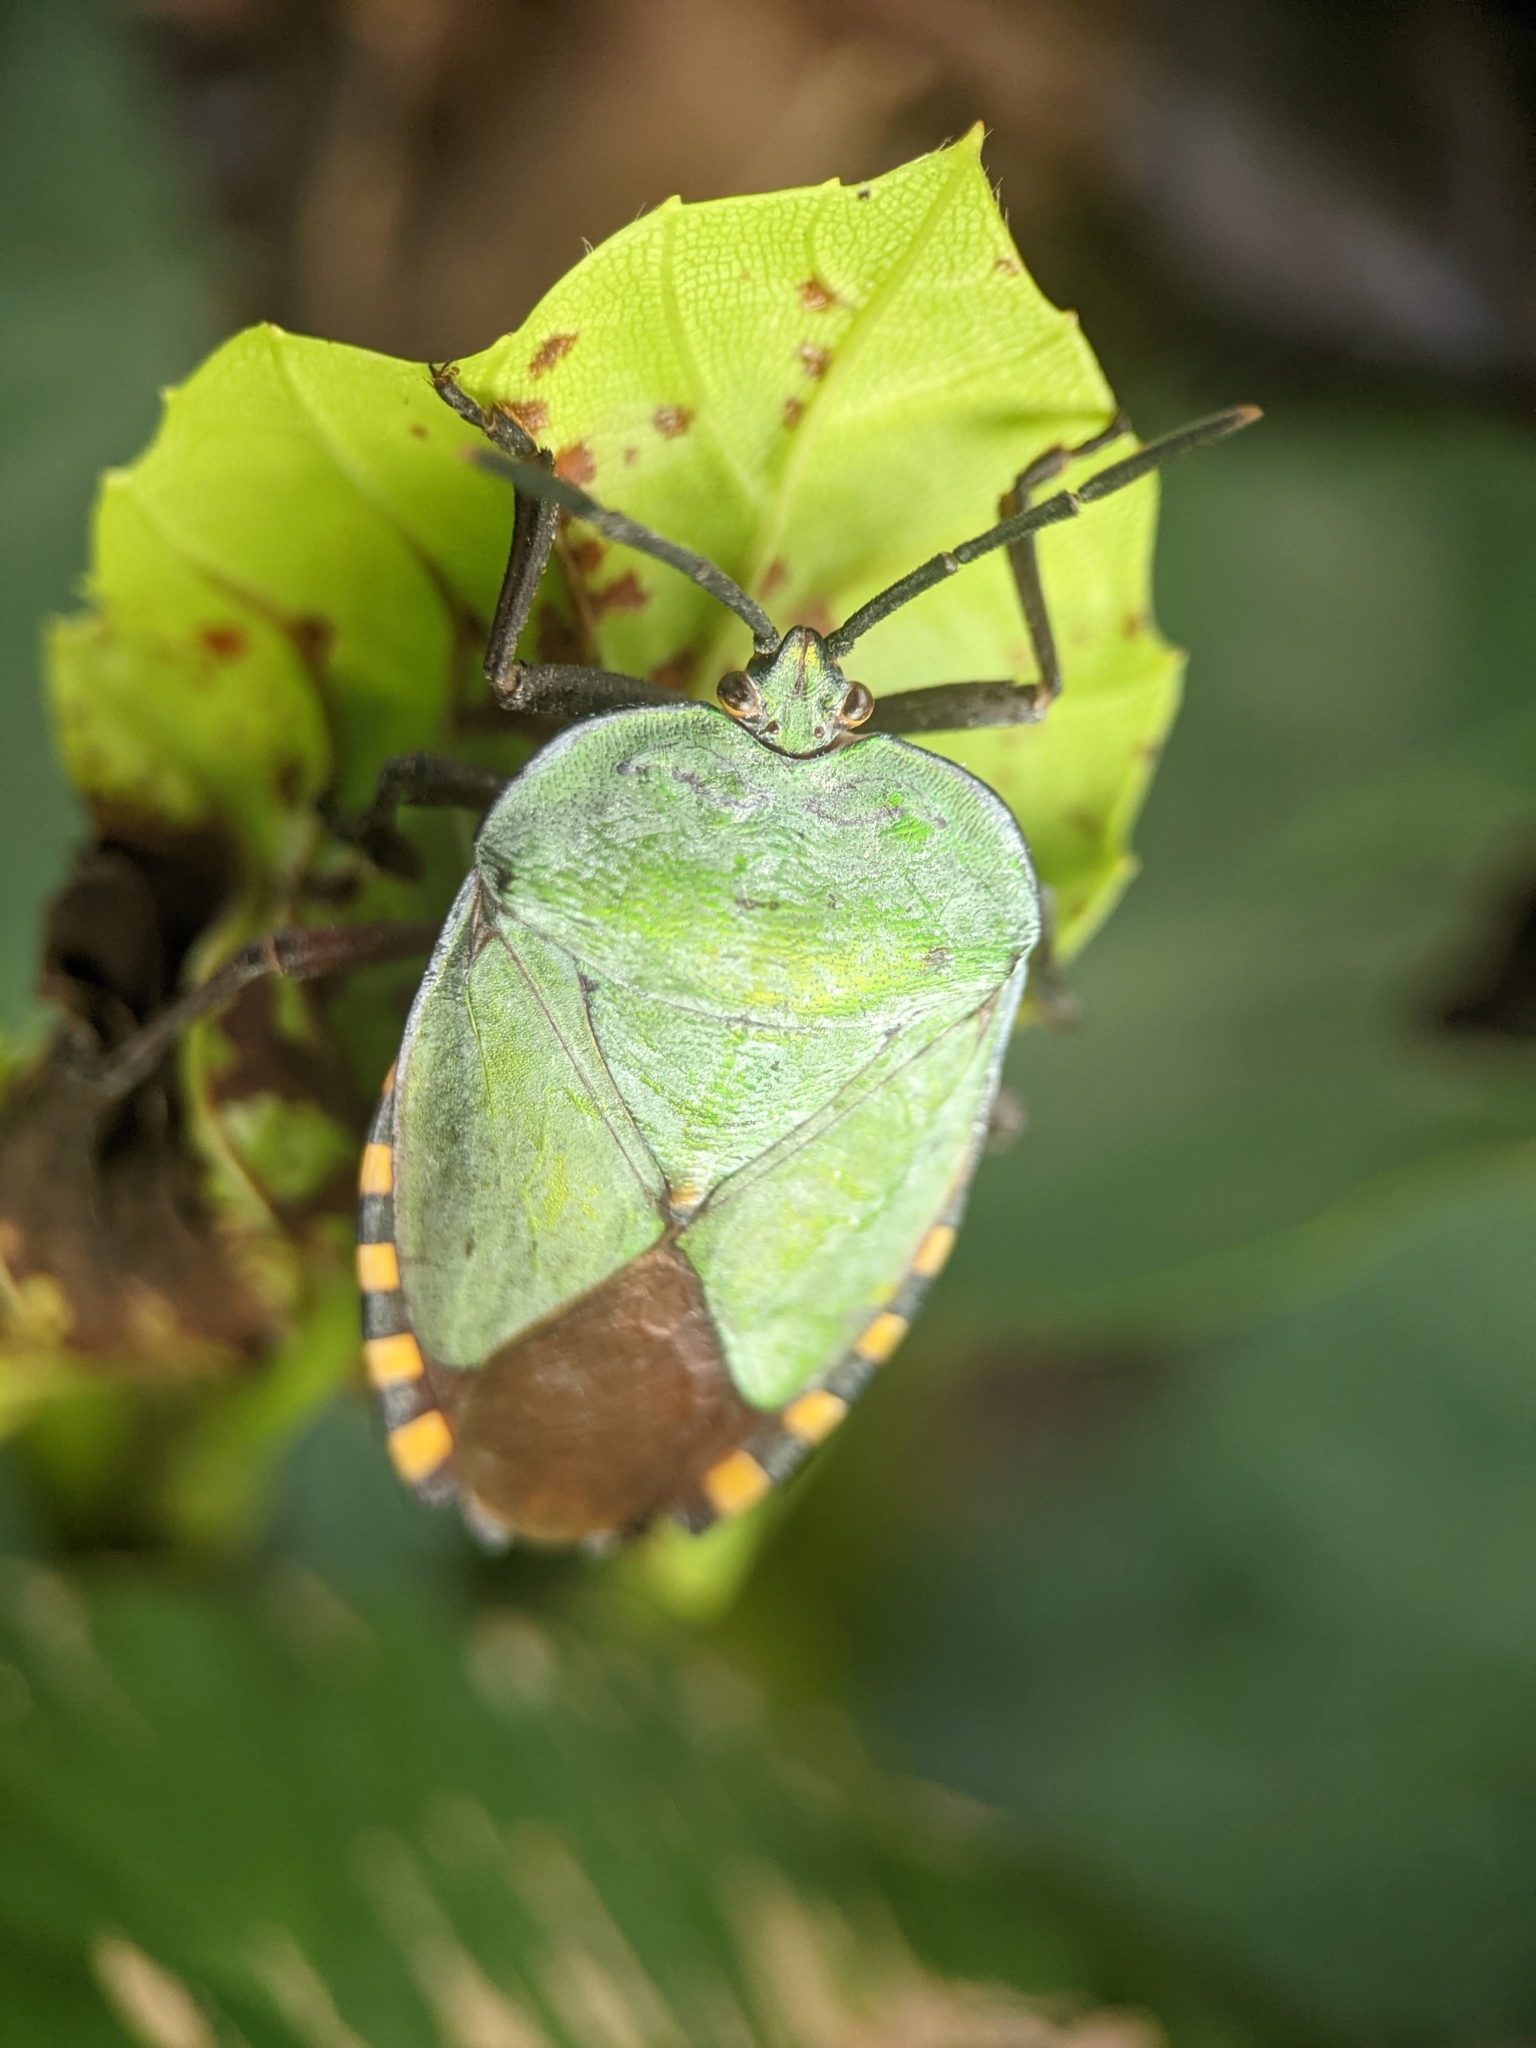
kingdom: Animalia
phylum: Arthropoda
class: Insecta
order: Hemiptera
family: Tessaratomidae
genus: Pycanum
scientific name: Pycanum alternatum
